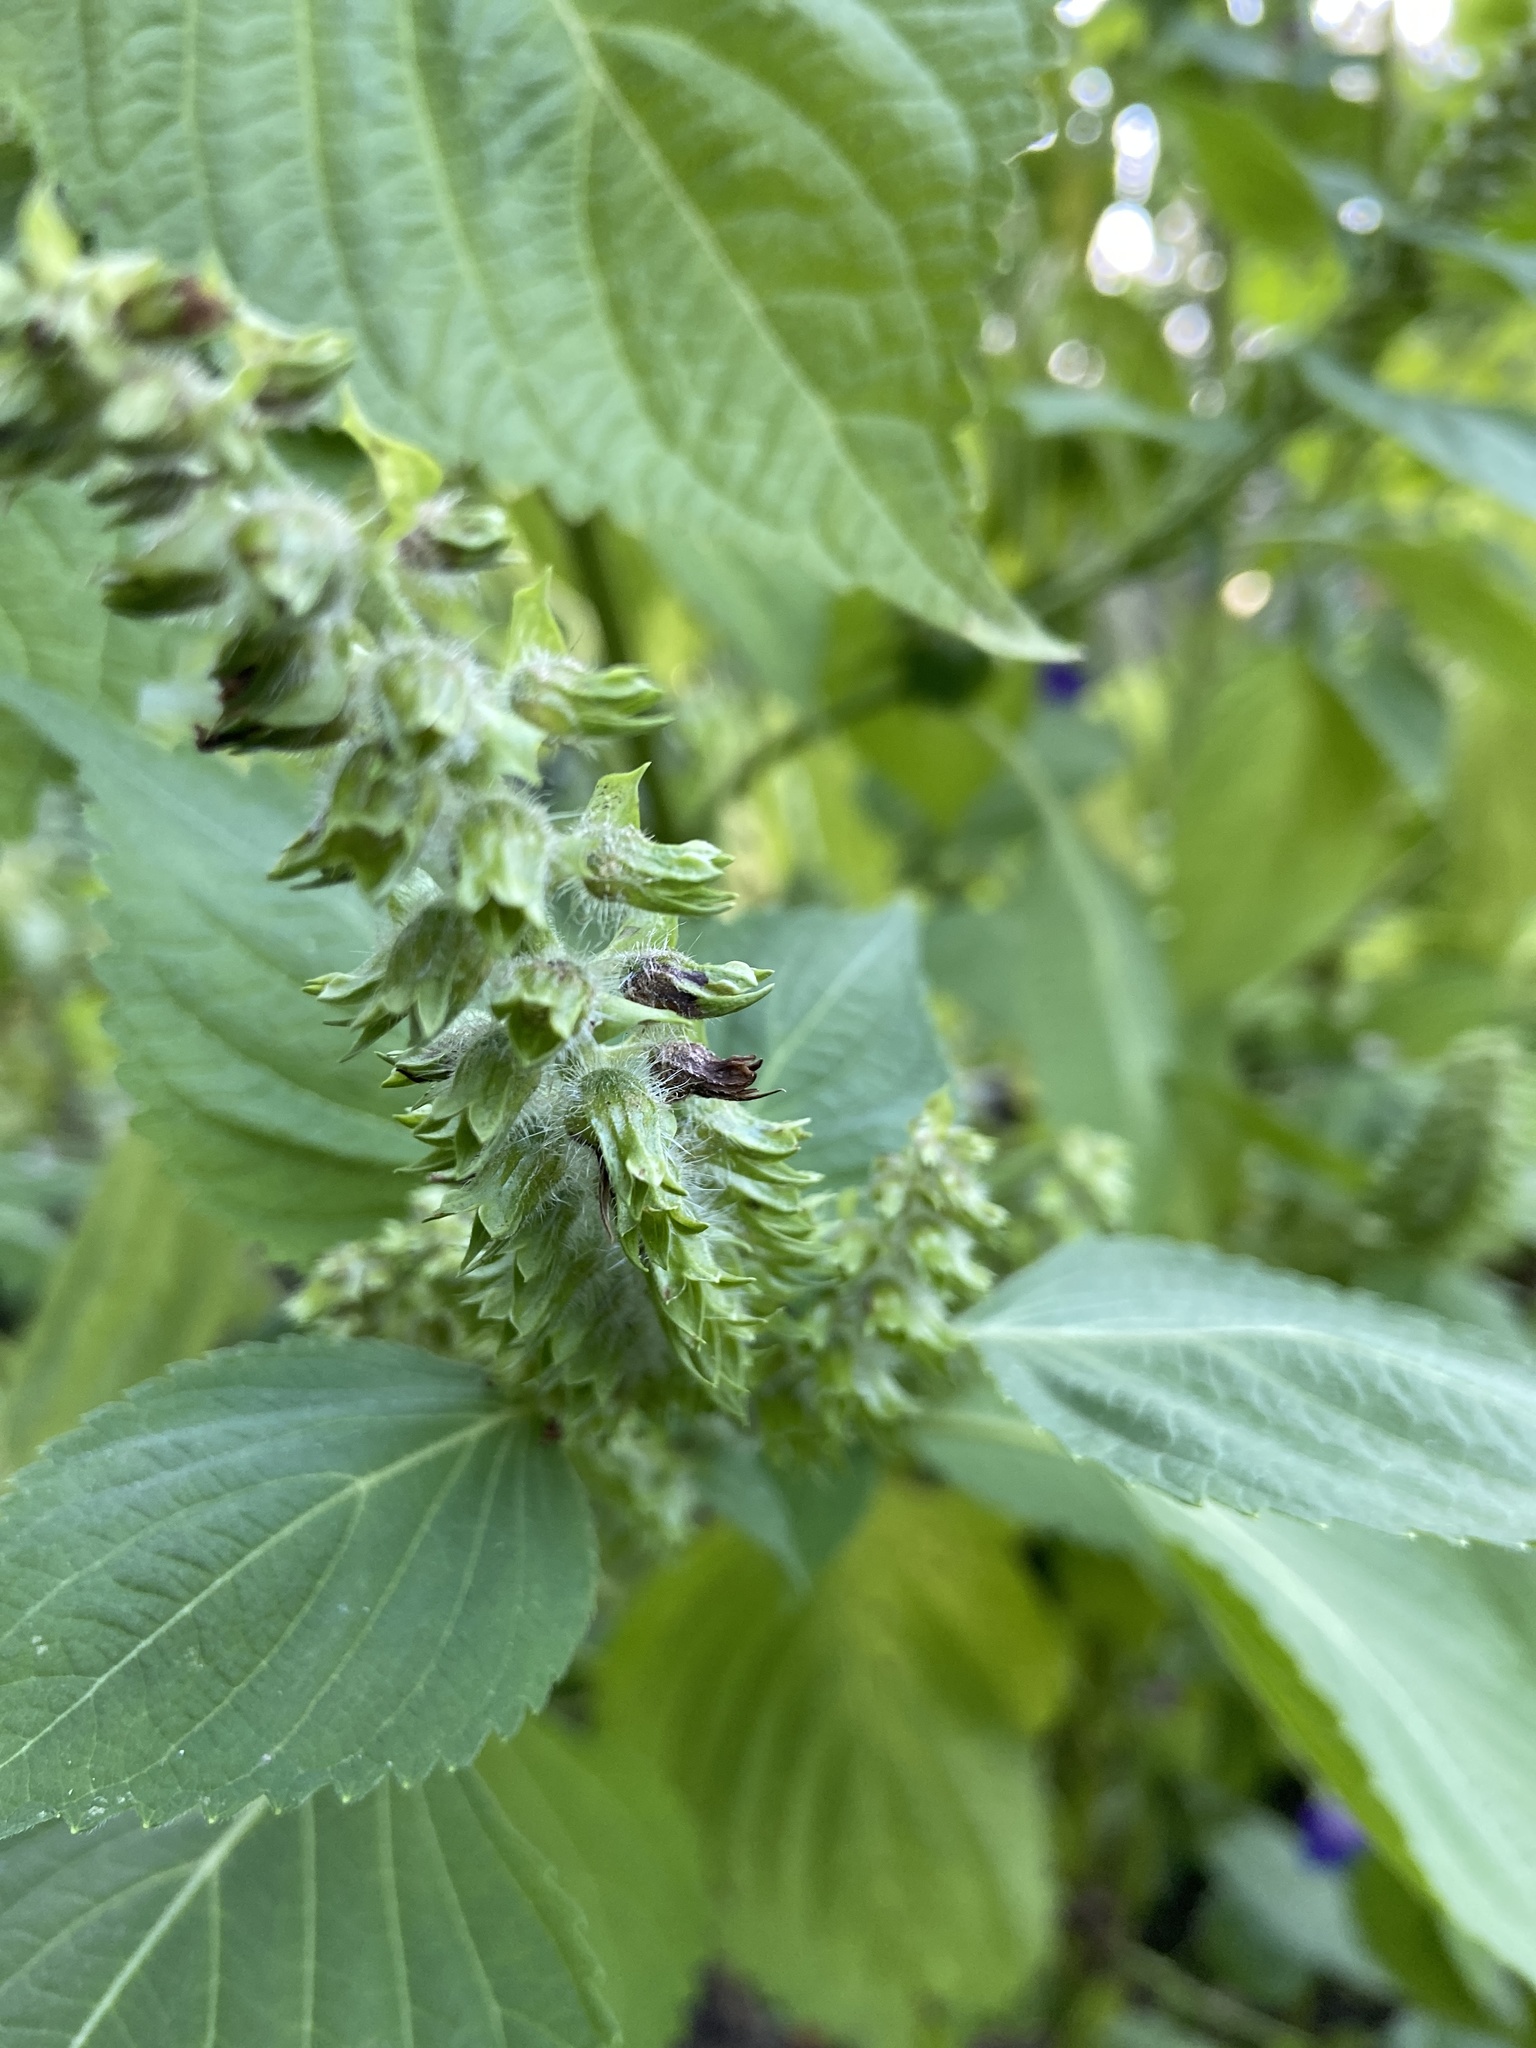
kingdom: Plantae
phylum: Tracheophyta
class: Magnoliopsida
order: Lamiales
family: Lamiaceae
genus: Perilla
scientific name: Perilla frutescens
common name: Perilla
